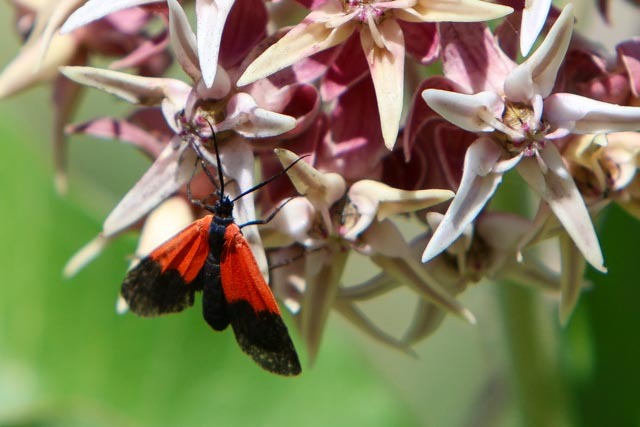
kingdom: Animalia
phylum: Arthropoda
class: Insecta
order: Lepidoptera
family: Erebidae
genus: Lycomorpha
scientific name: Lycomorpha pholus
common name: Black-and-yellow lichen moth
